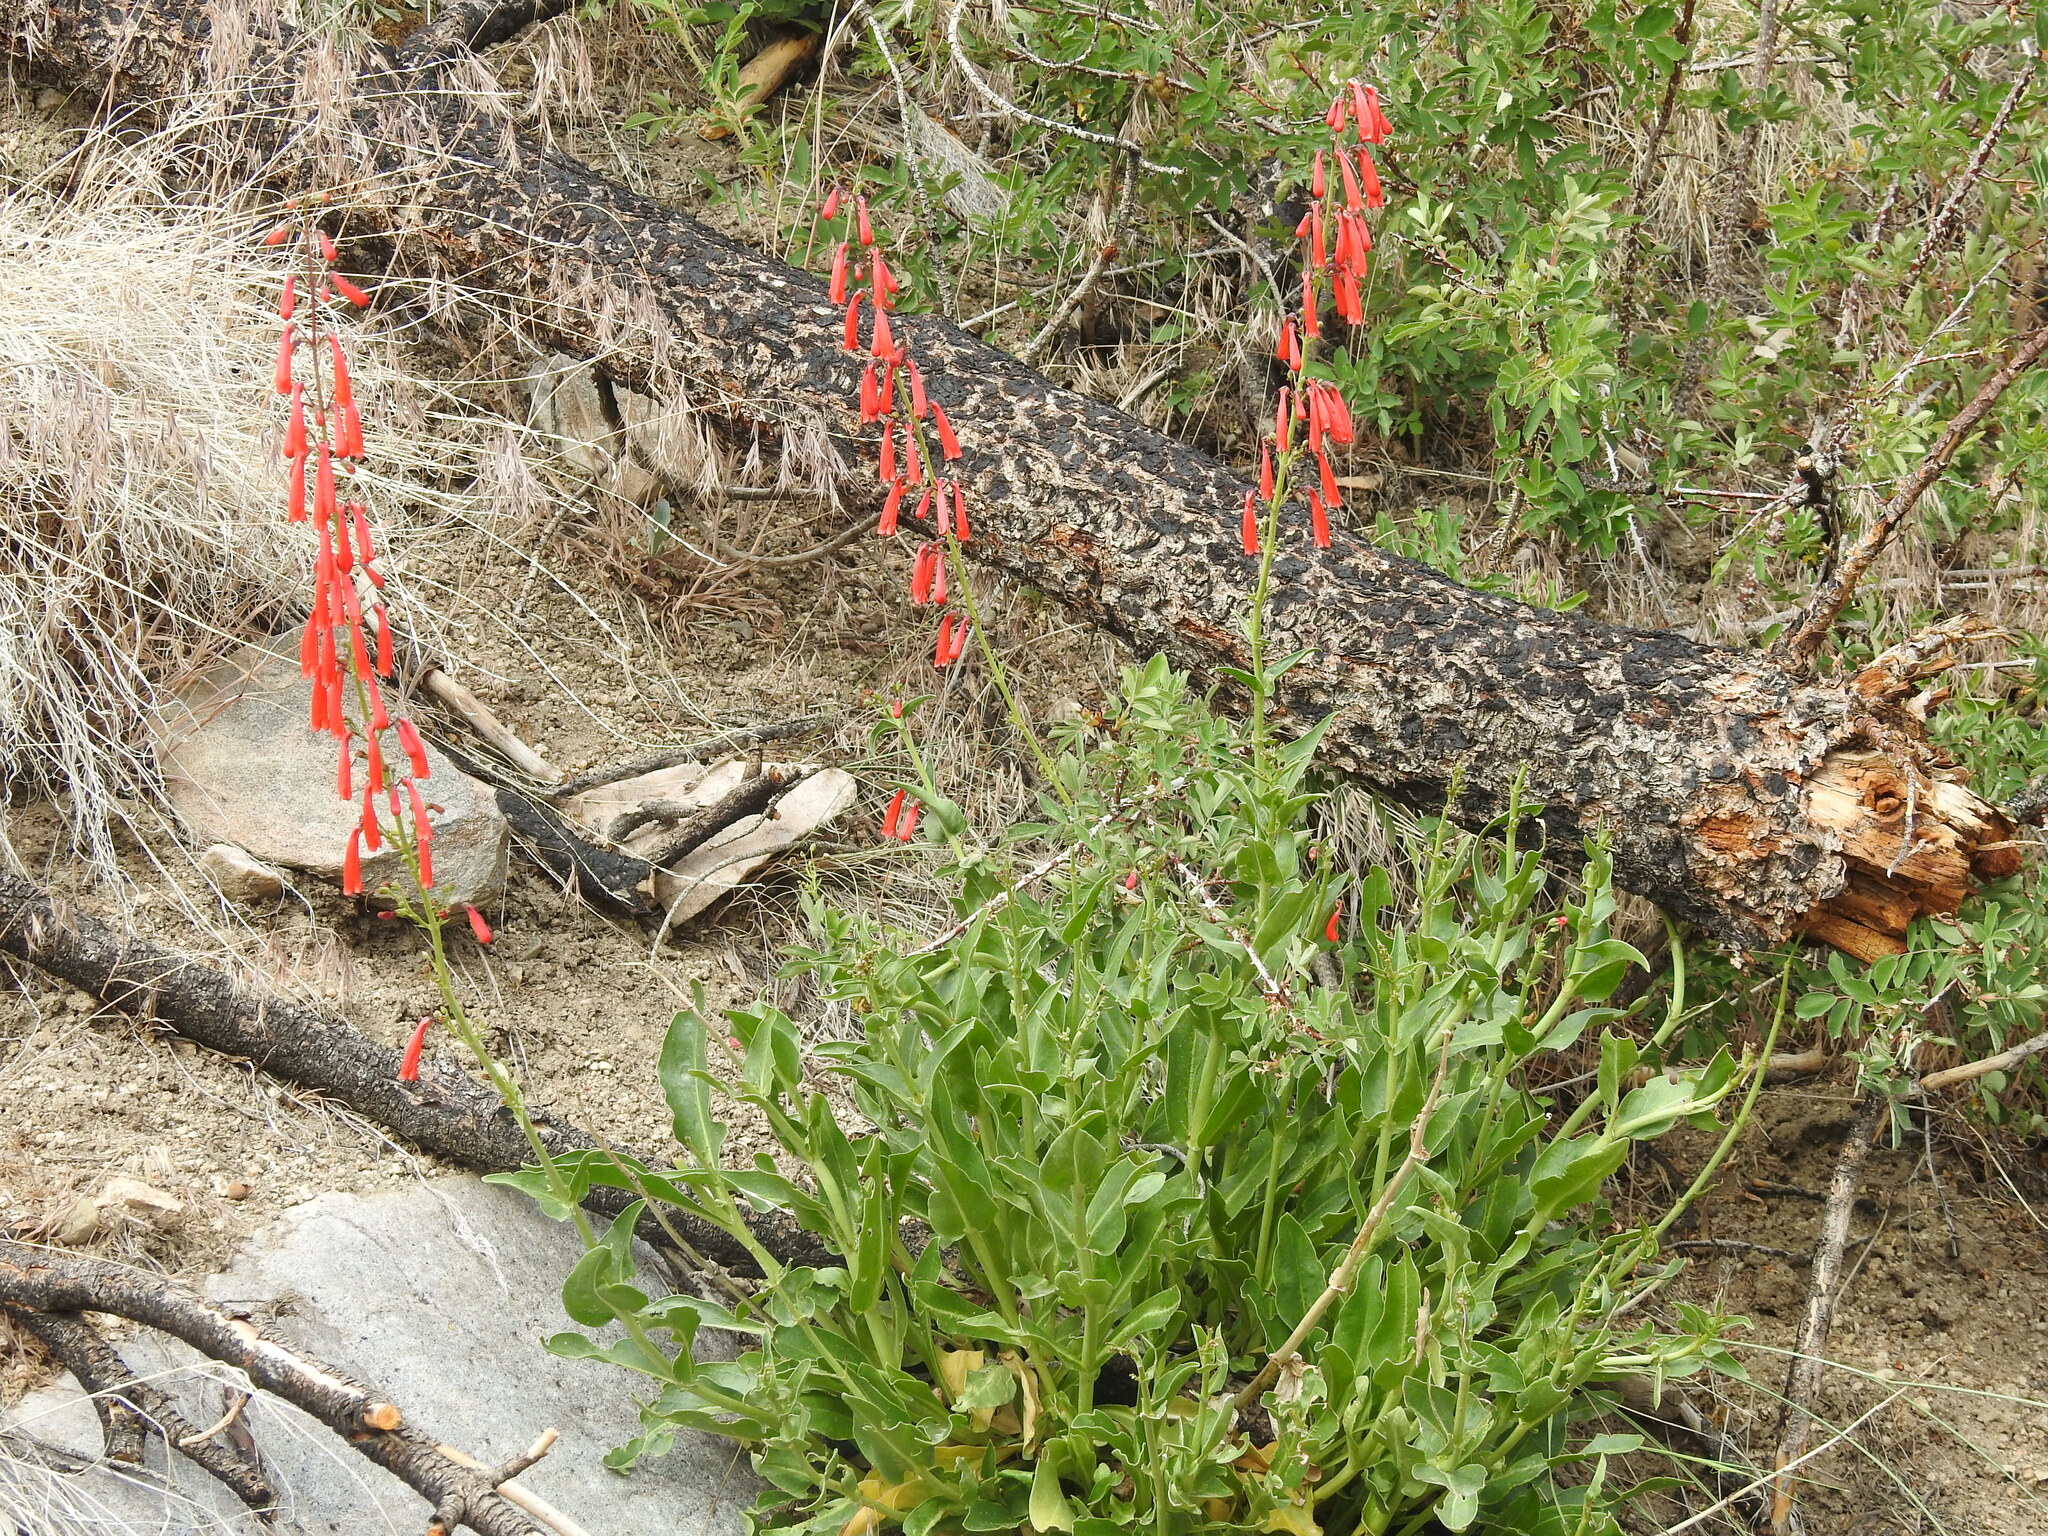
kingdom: Plantae
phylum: Tracheophyta
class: Magnoliopsida
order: Lamiales
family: Plantaginaceae
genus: Penstemon
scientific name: Penstemon eatonii
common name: Eaton's penstemon
